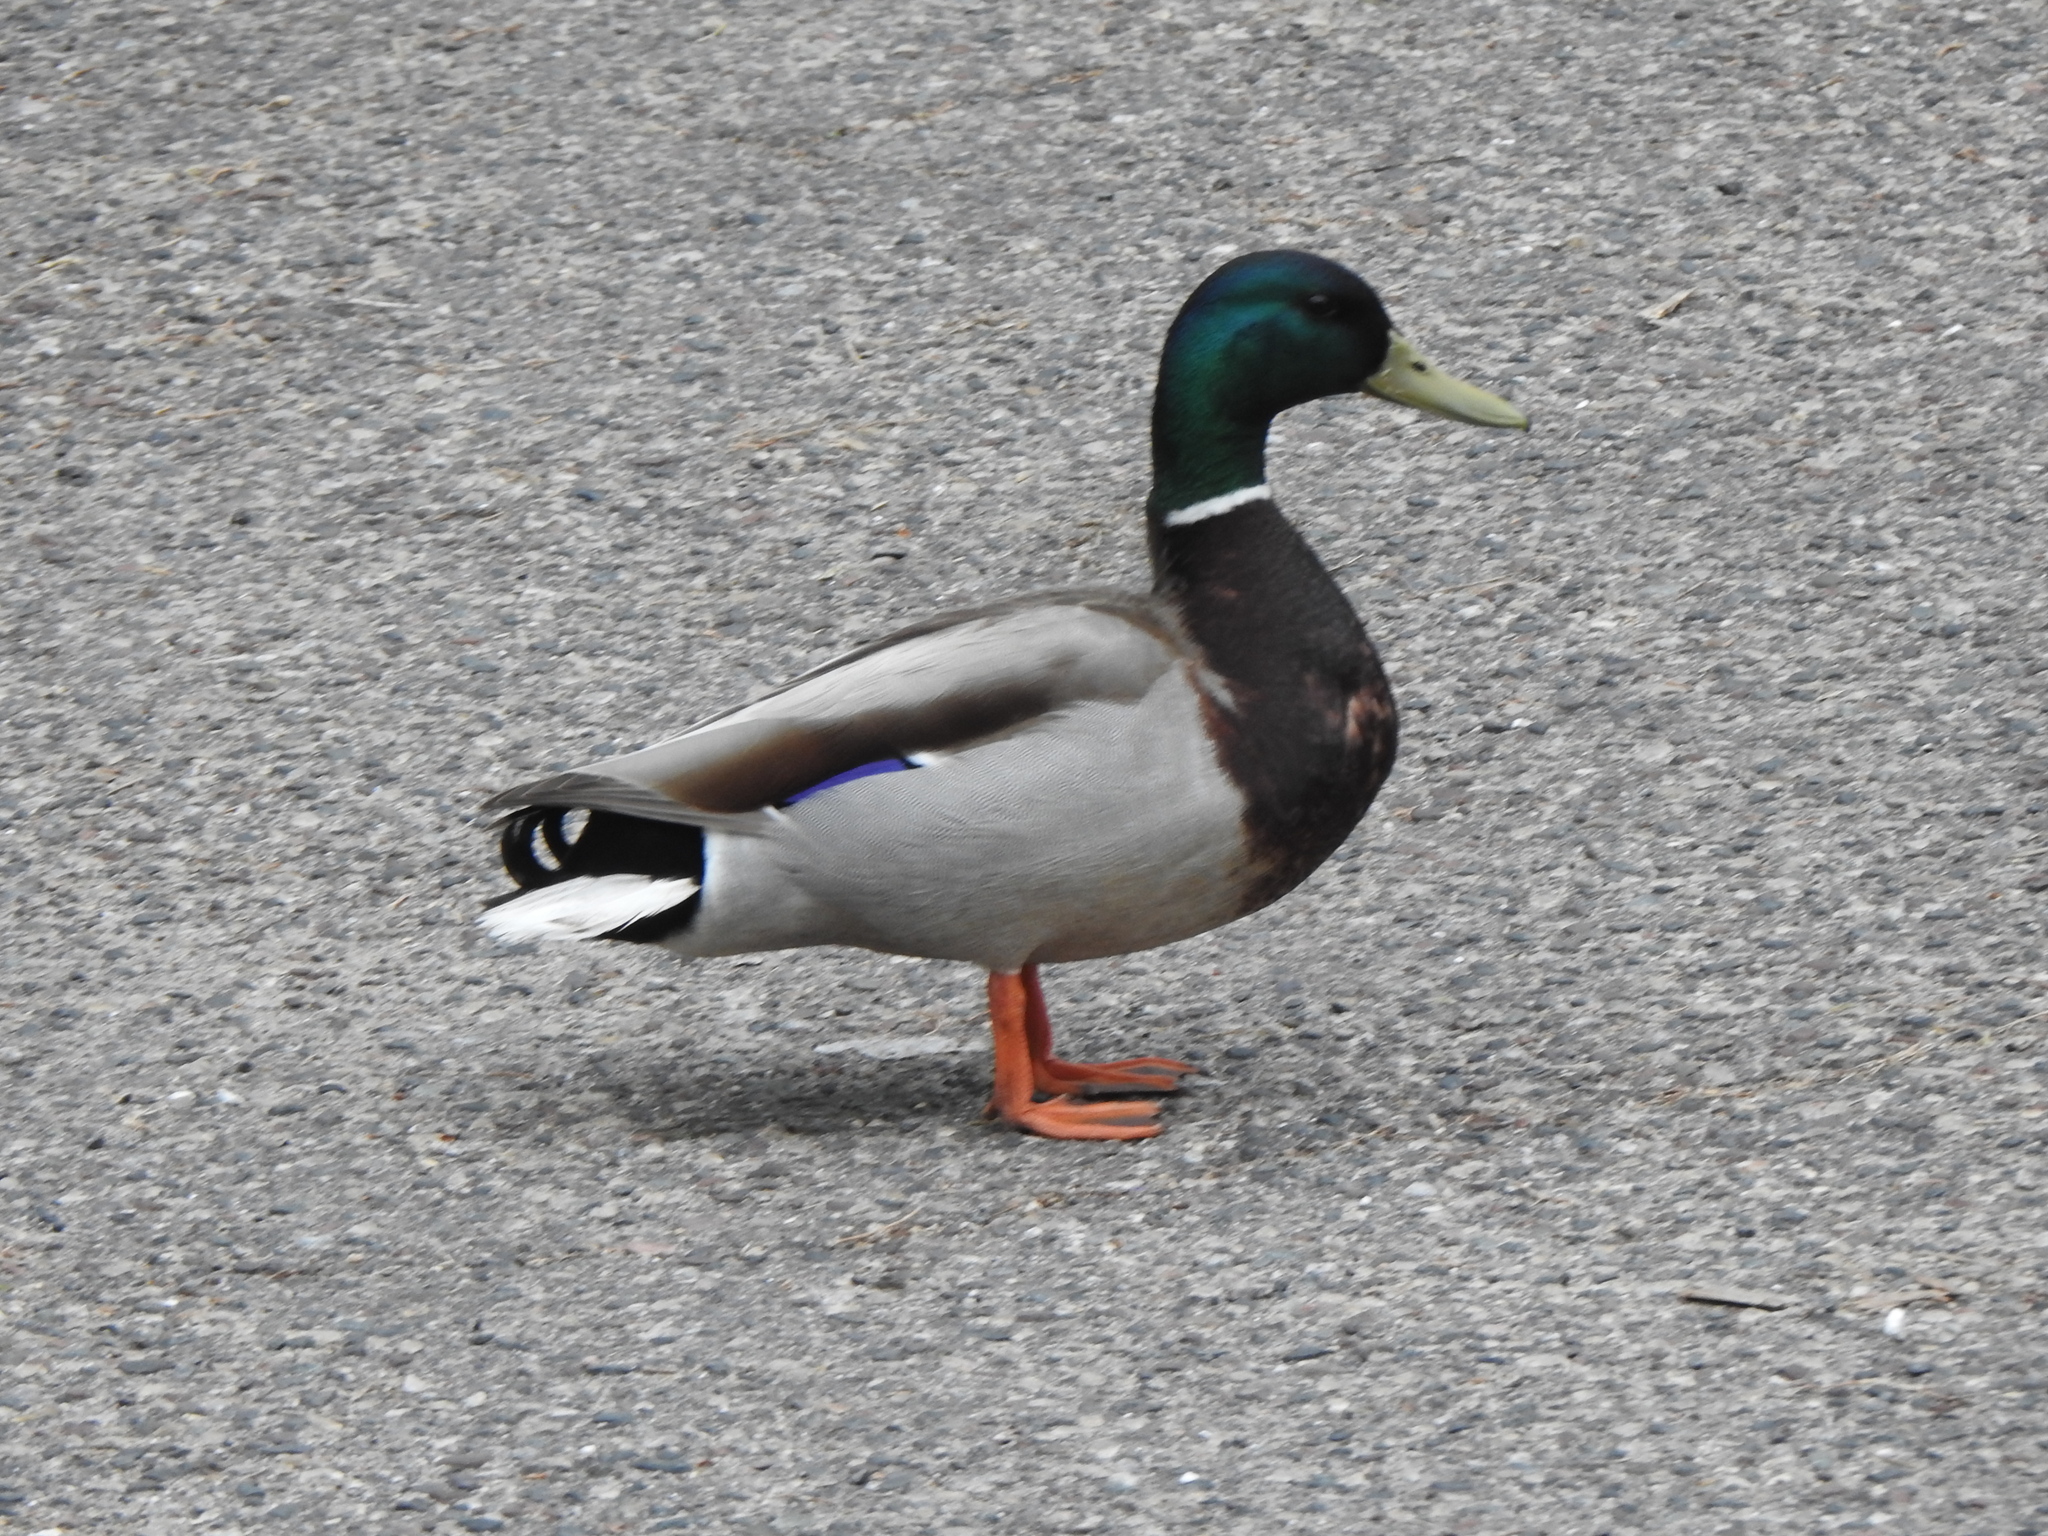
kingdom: Animalia
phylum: Chordata
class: Aves
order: Anseriformes
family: Anatidae
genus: Anas
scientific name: Anas platyrhynchos
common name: Mallard
